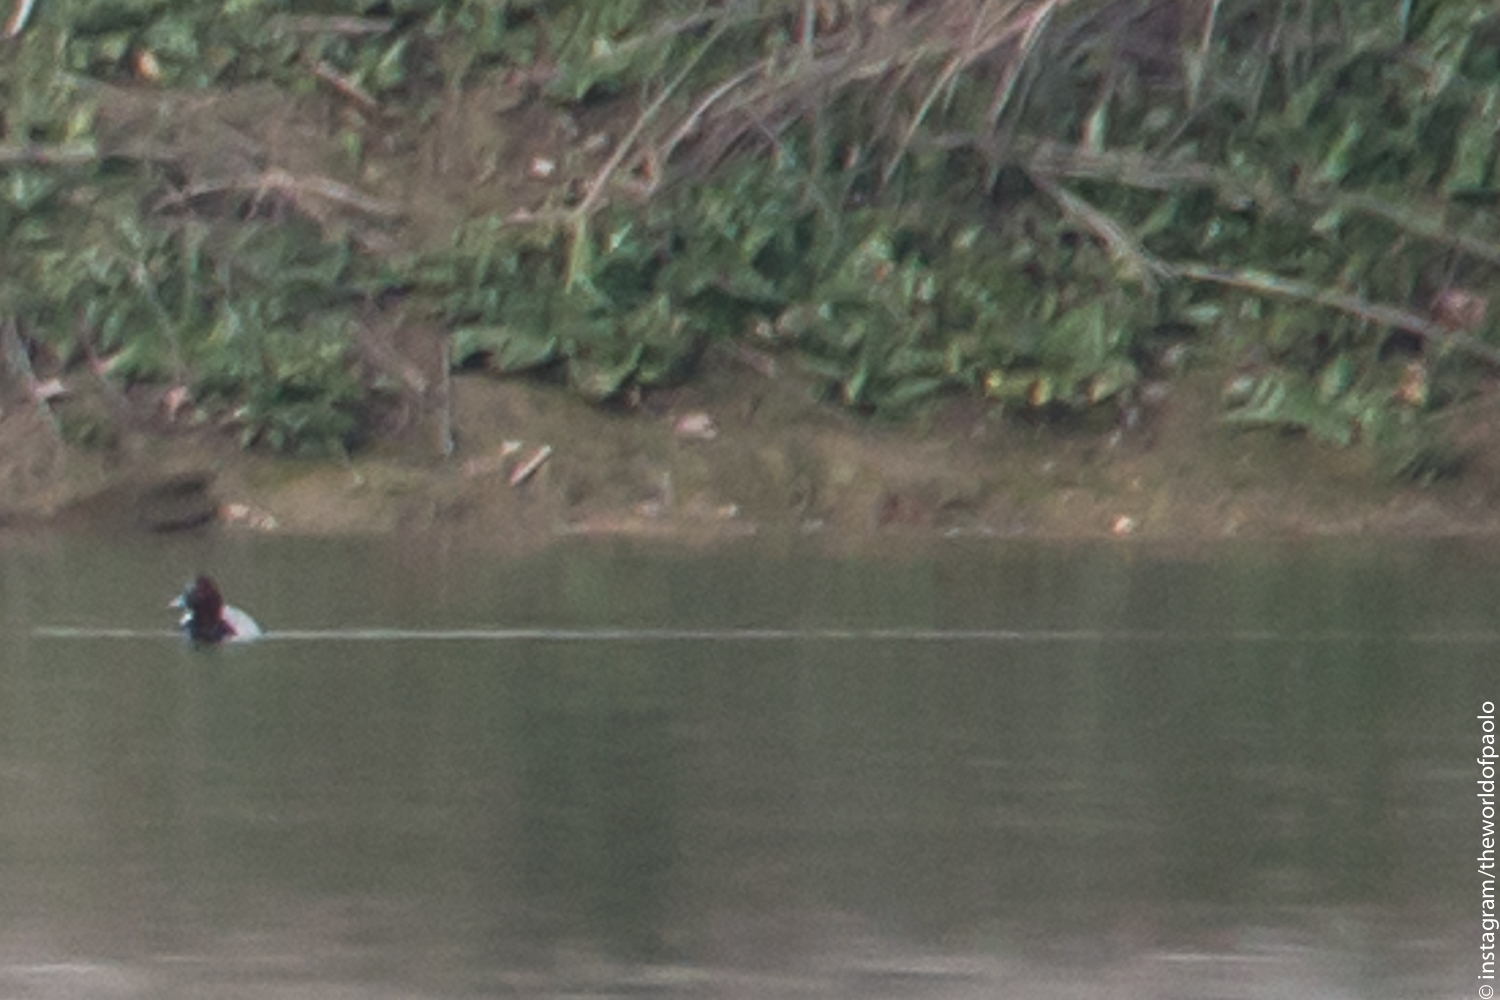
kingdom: Animalia
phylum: Chordata
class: Aves
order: Anseriformes
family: Anatidae
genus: Aythya
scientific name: Aythya ferina
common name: Common pochard
